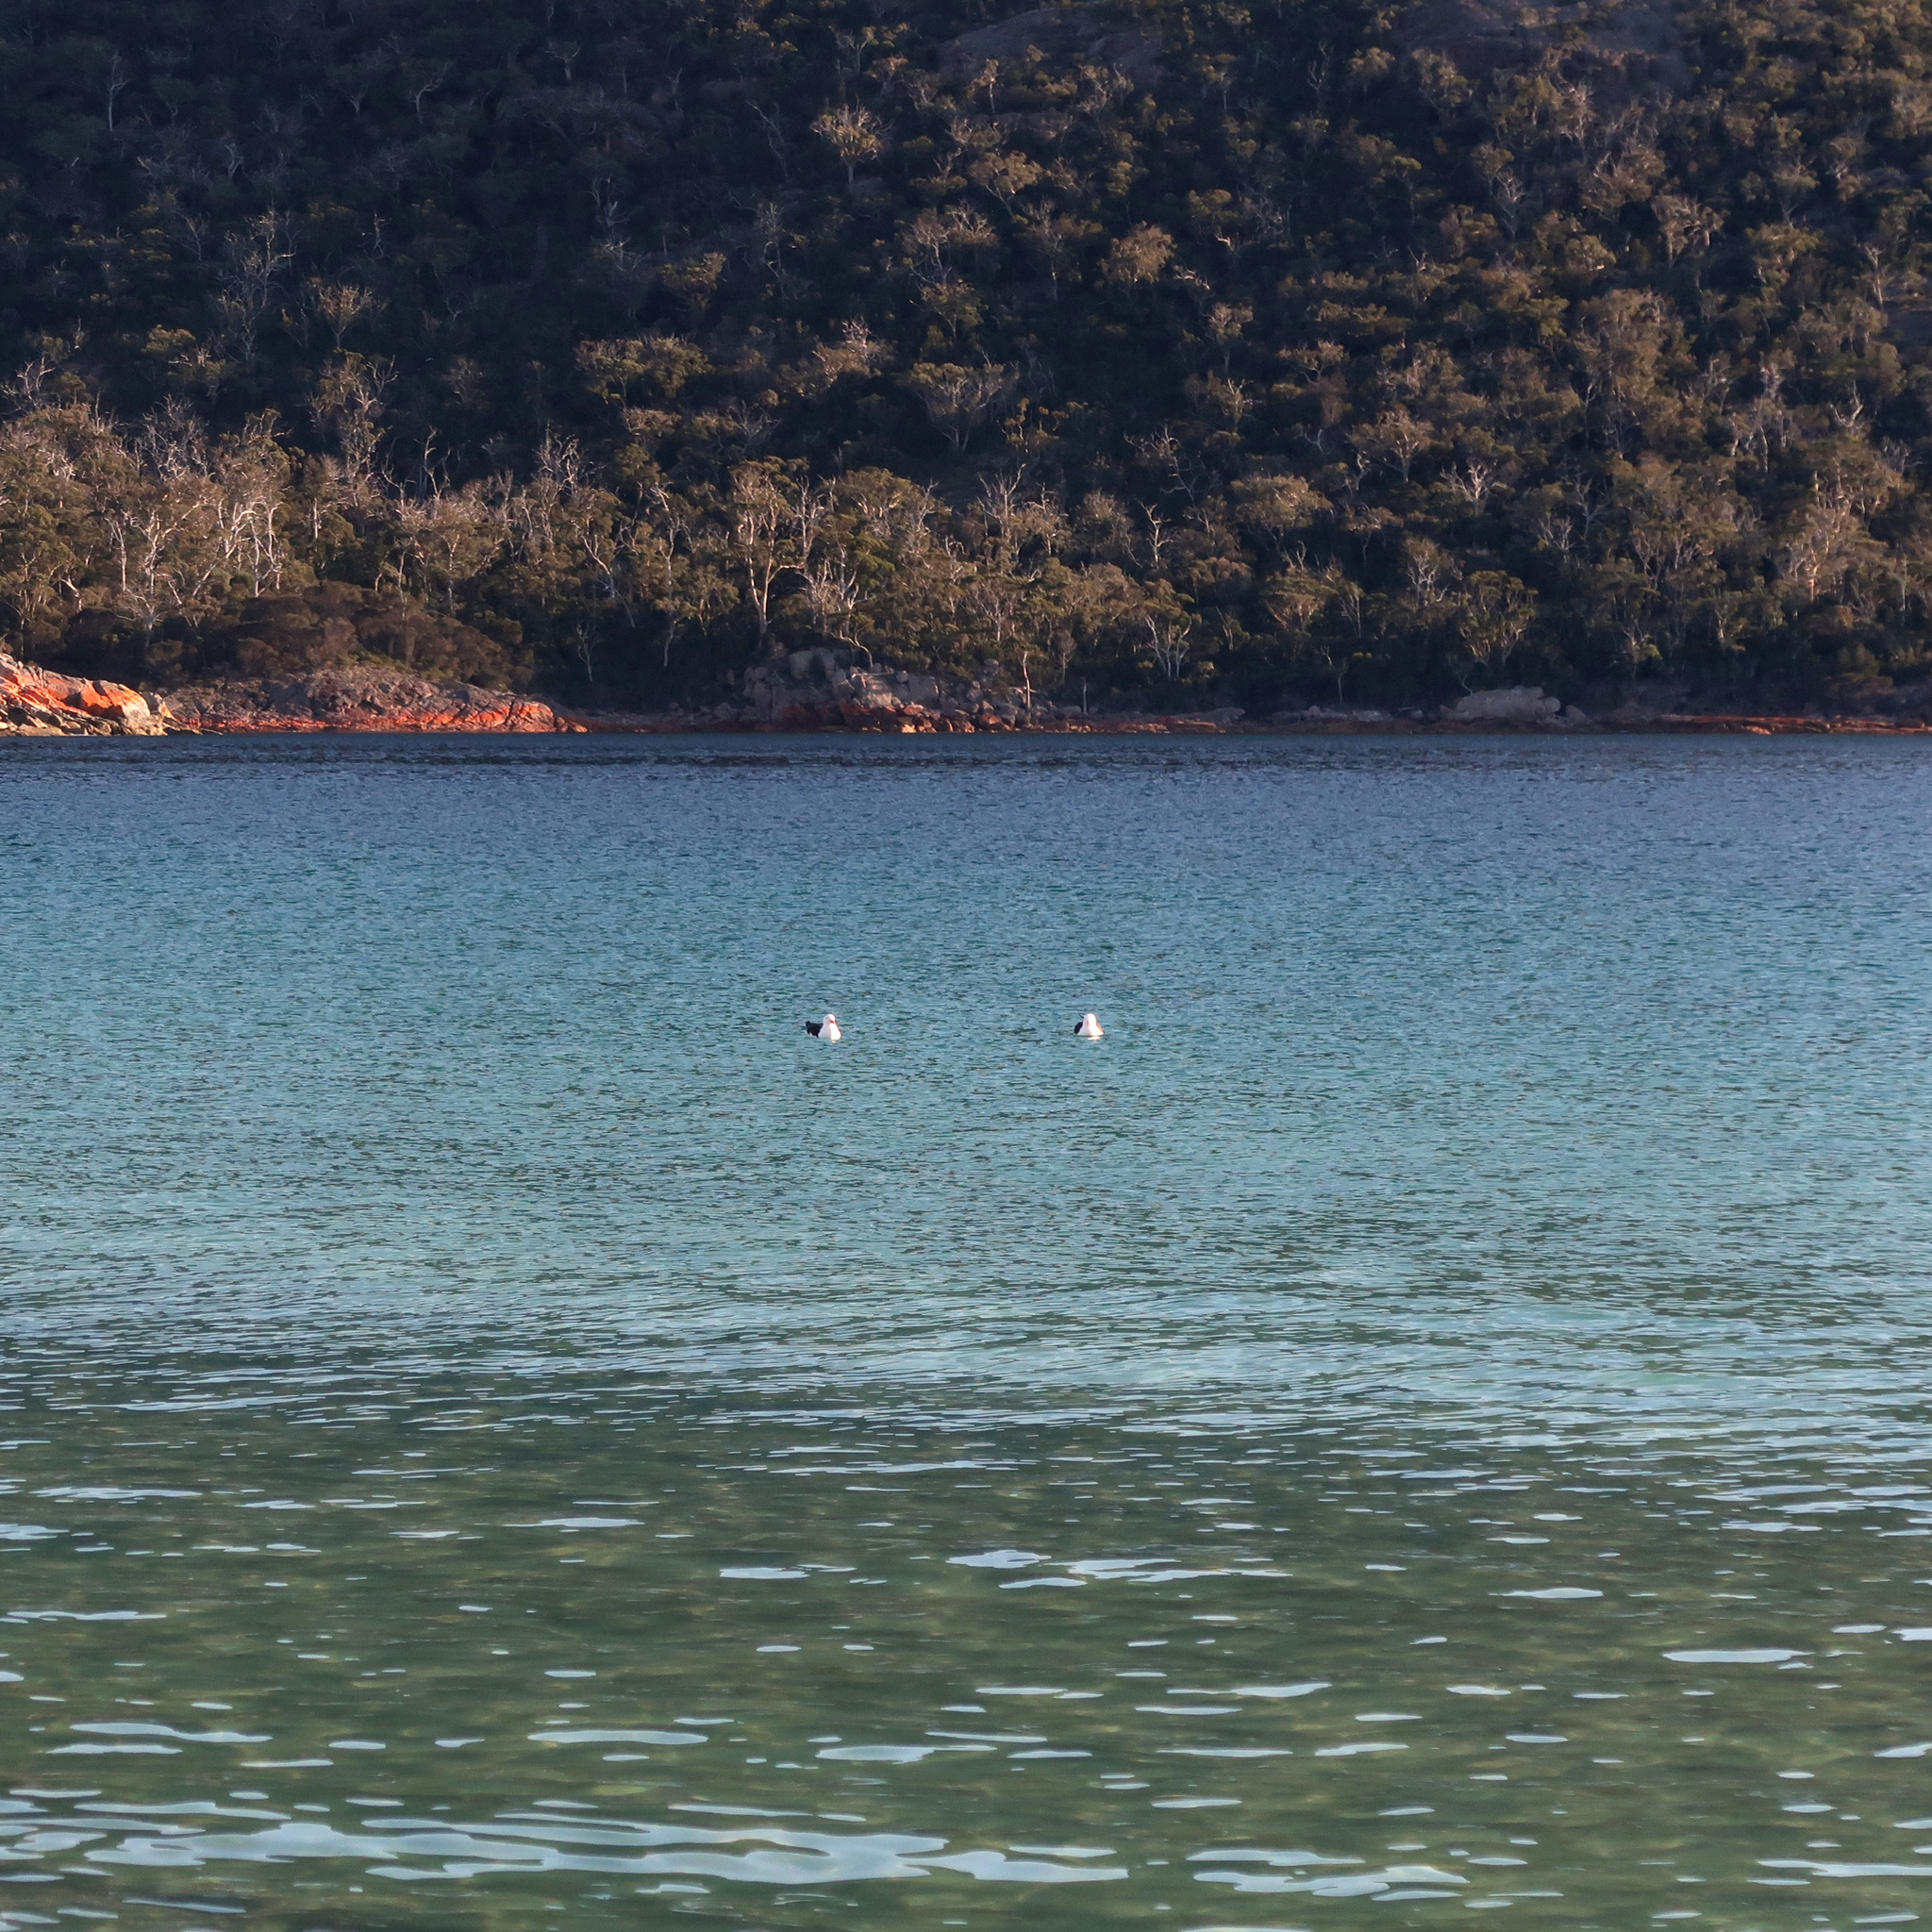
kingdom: Animalia
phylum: Chordata
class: Aves
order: Charadriiformes
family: Laridae
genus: Larus
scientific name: Larus pacificus
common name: Pacific gull
